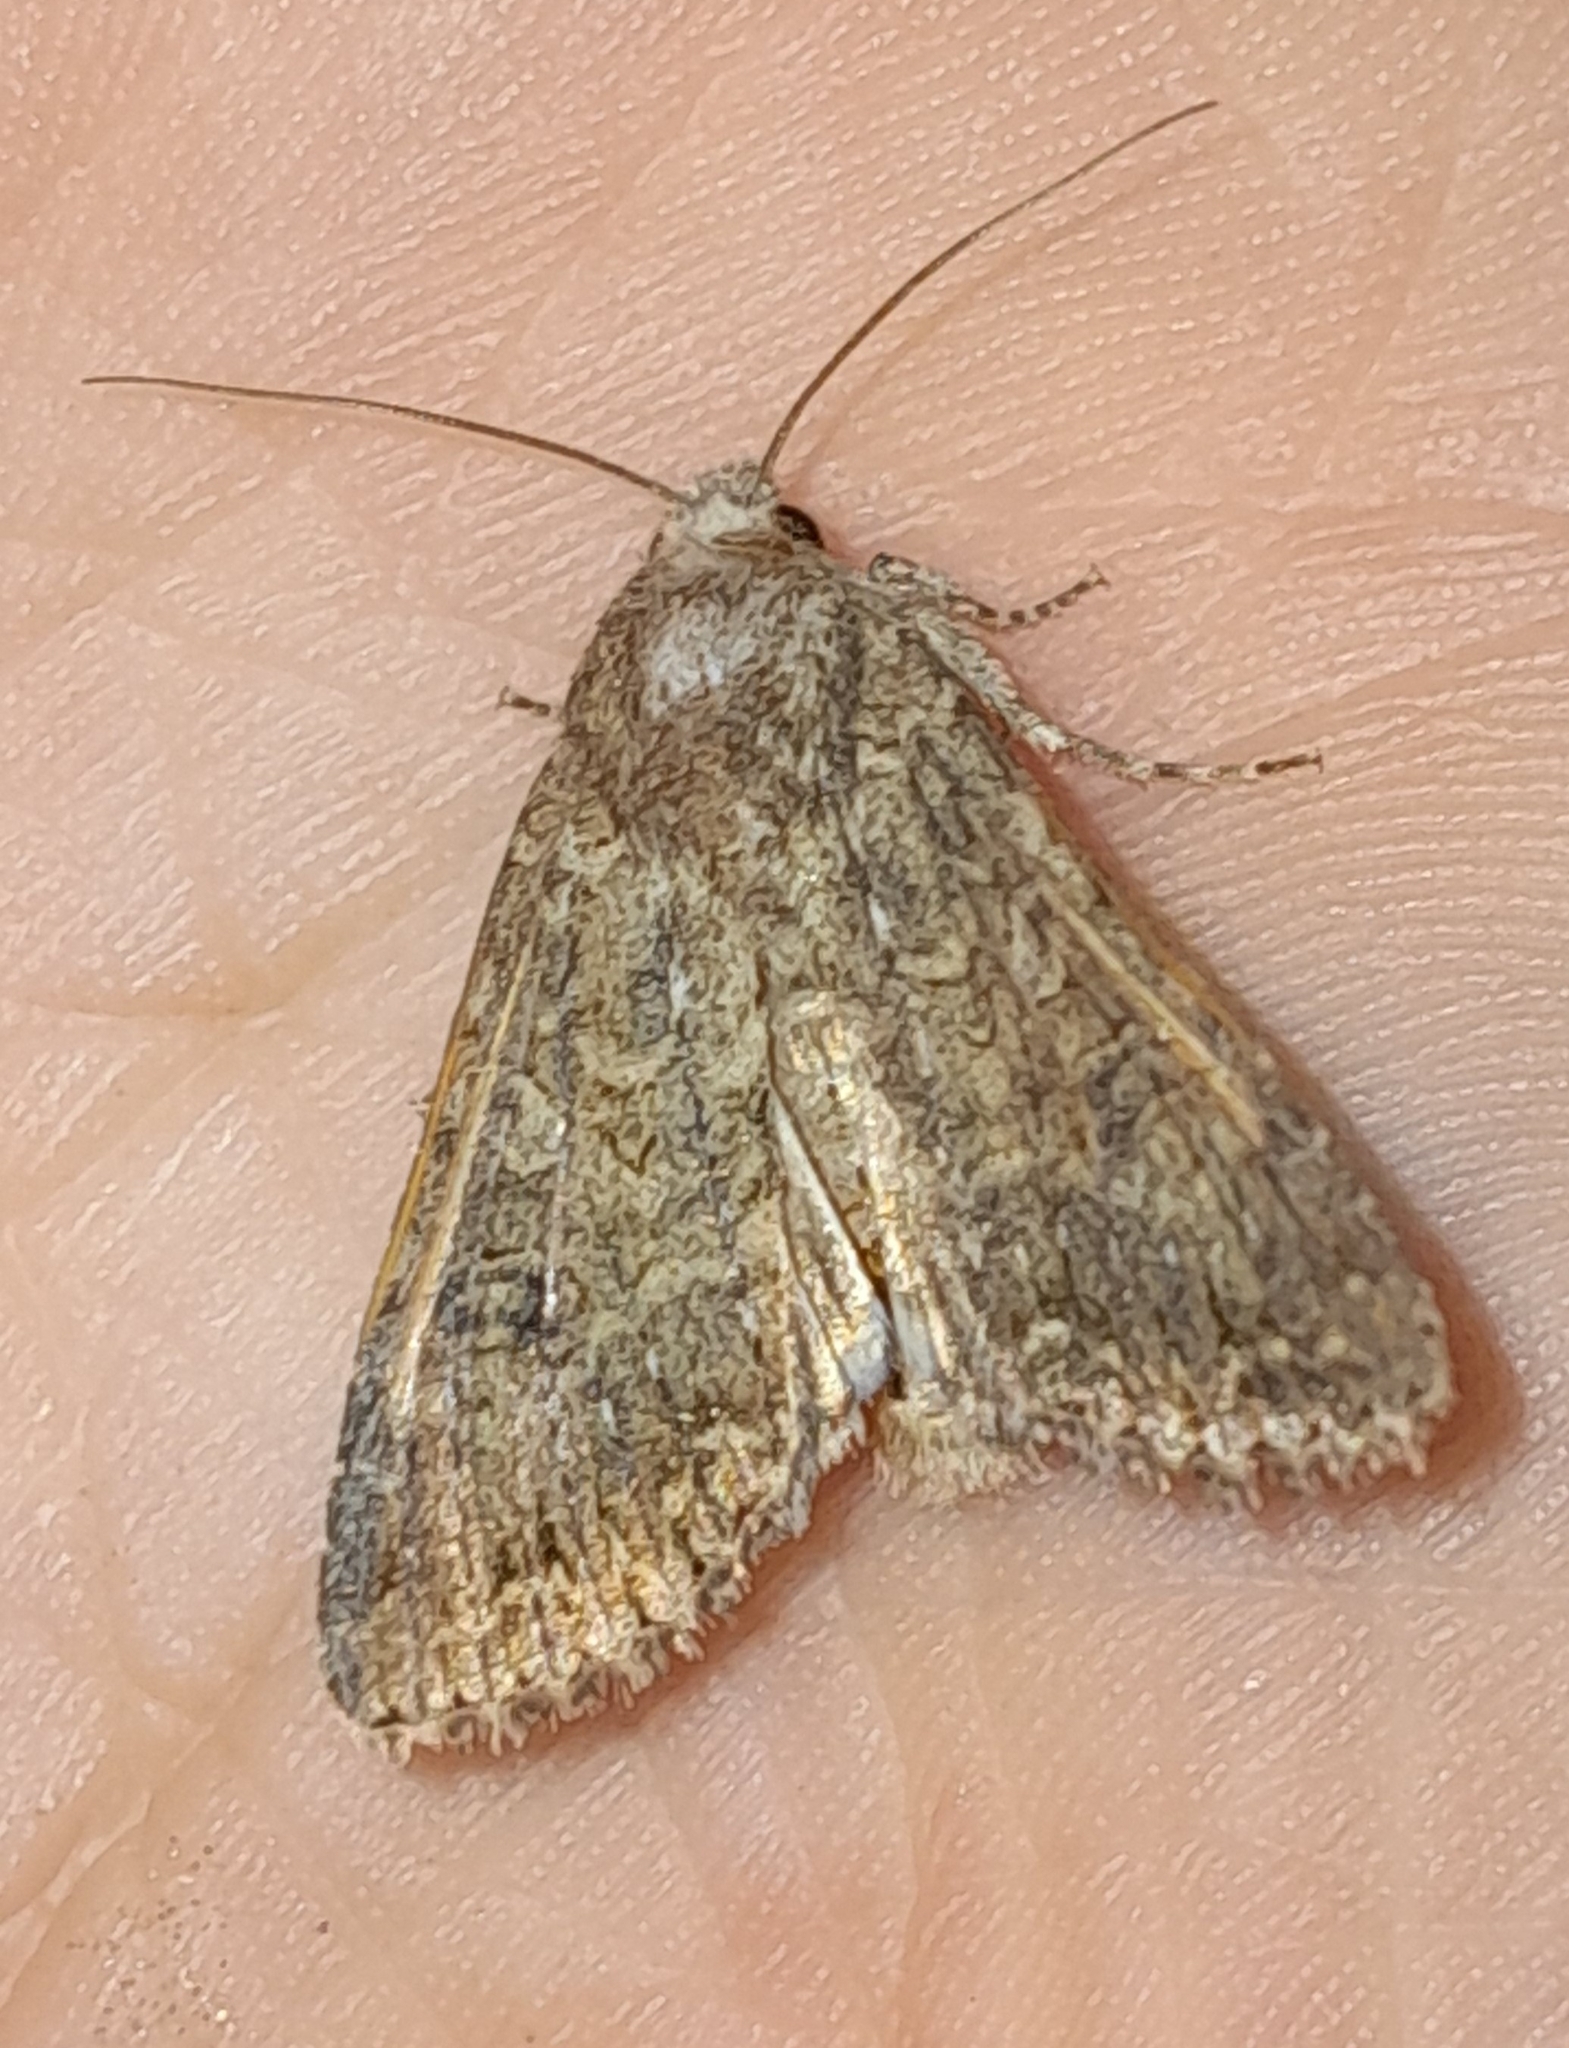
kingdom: Animalia
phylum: Arthropoda
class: Insecta
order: Lepidoptera
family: Noctuidae
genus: Anarta
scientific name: Anarta trifolii
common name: Clover cutworm moth
